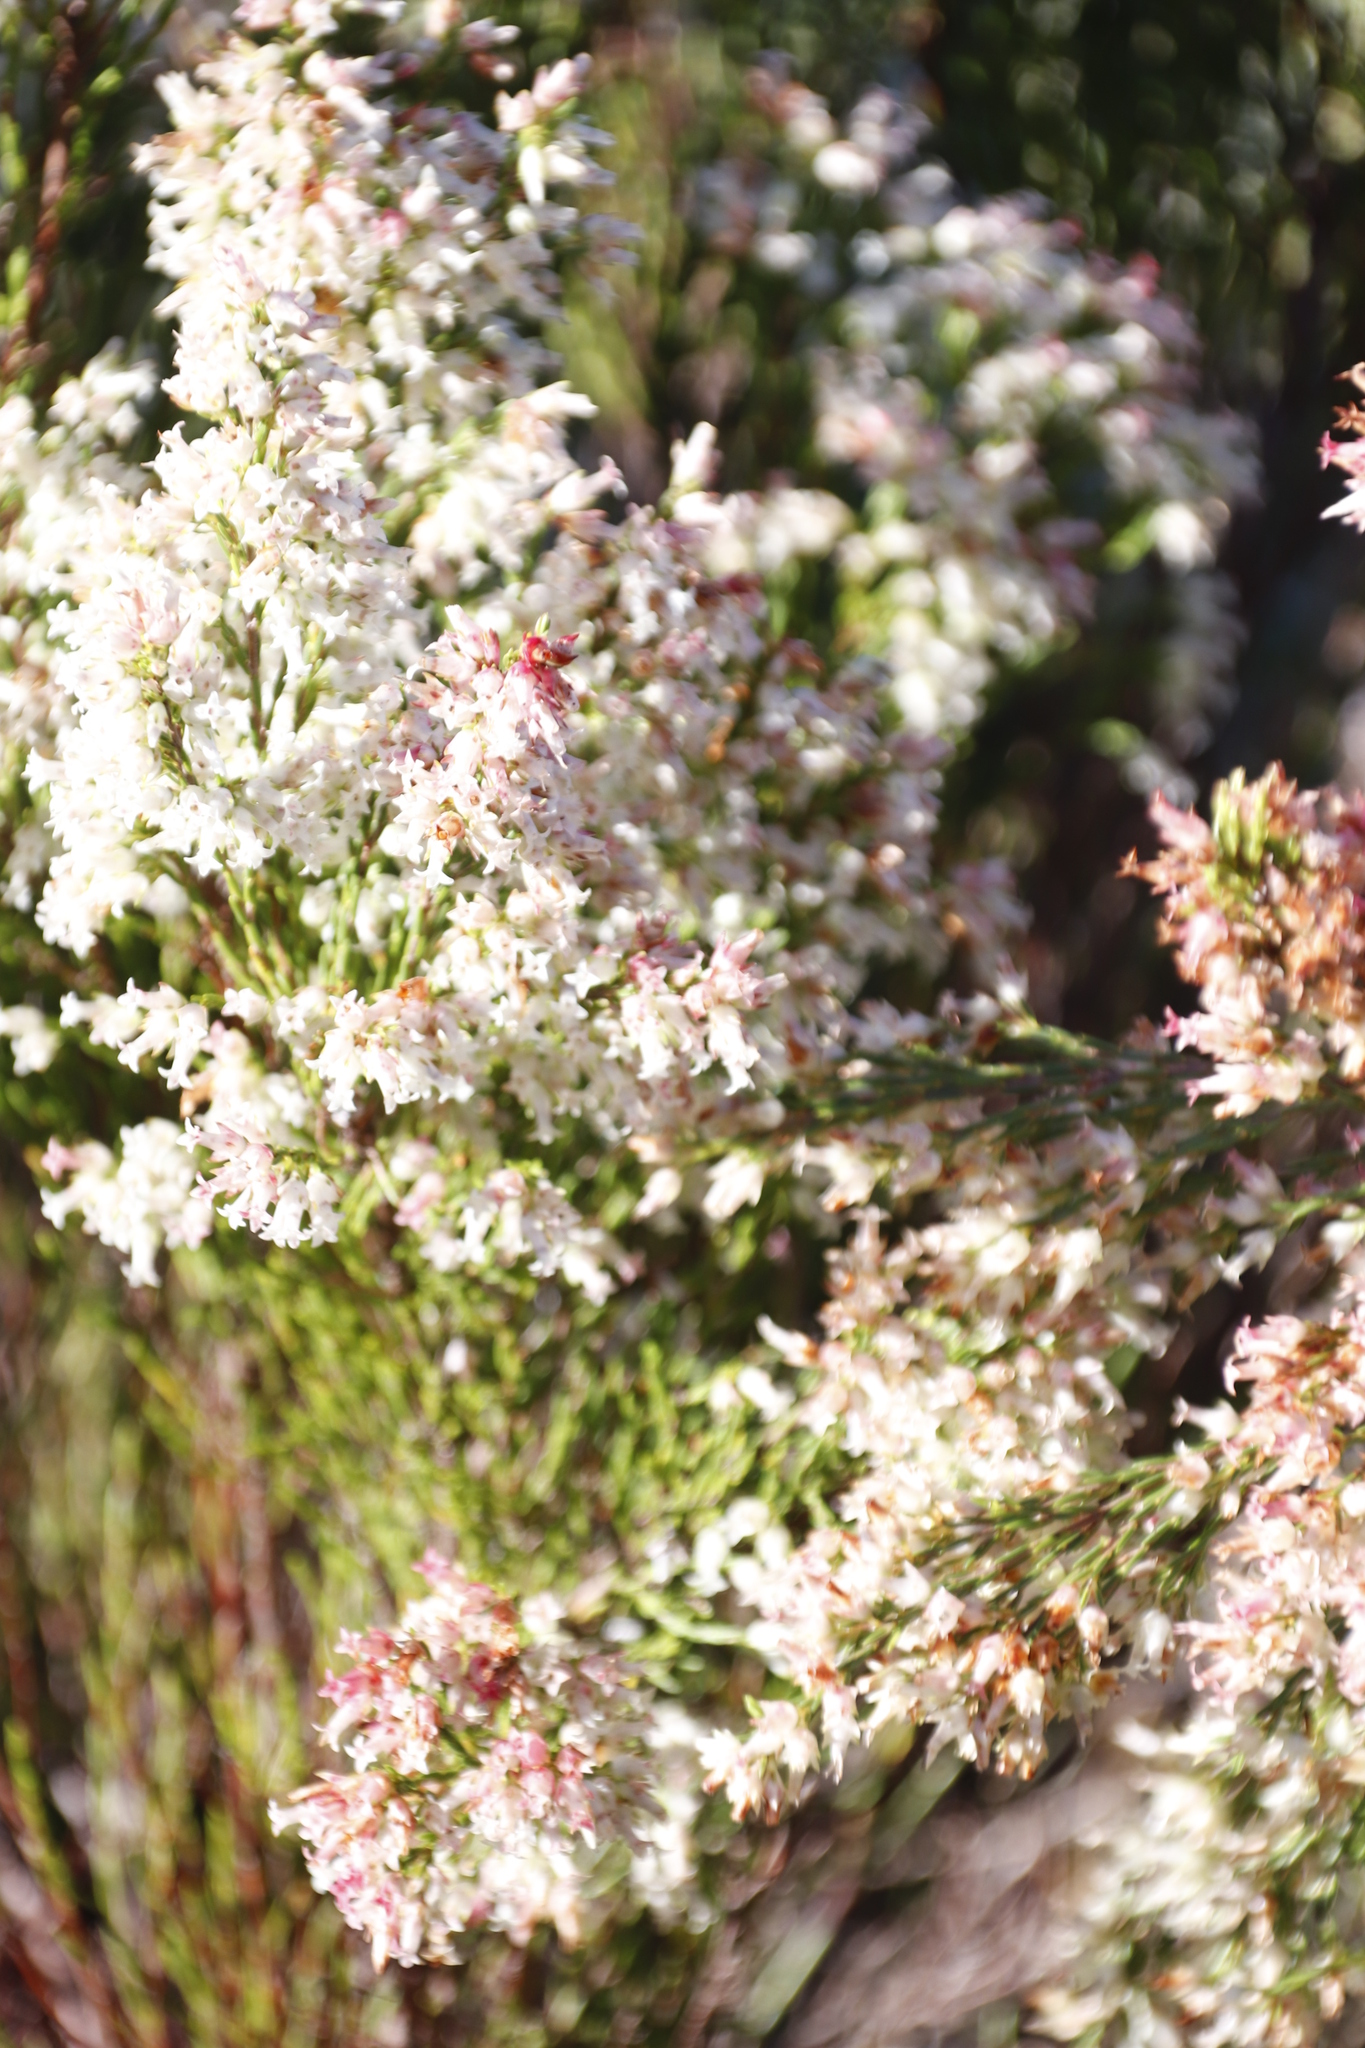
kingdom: Plantae
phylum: Tracheophyta
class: Magnoliopsida
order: Ericales
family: Ericaceae
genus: Erica
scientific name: Erica lutea
